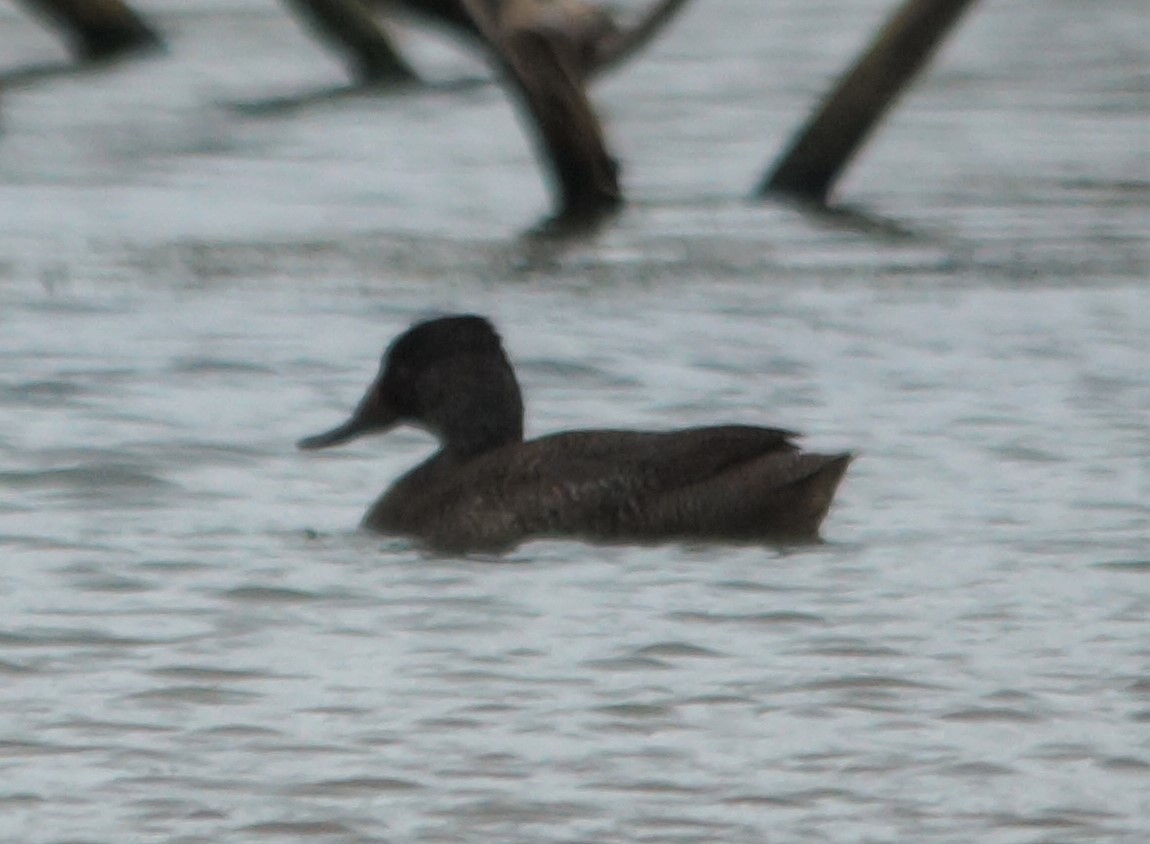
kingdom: Animalia
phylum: Chordata
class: Aves
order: Anseriformes
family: Anatidae
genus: Stictonetta
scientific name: Stictonetta naevosa
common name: Freckled duck
